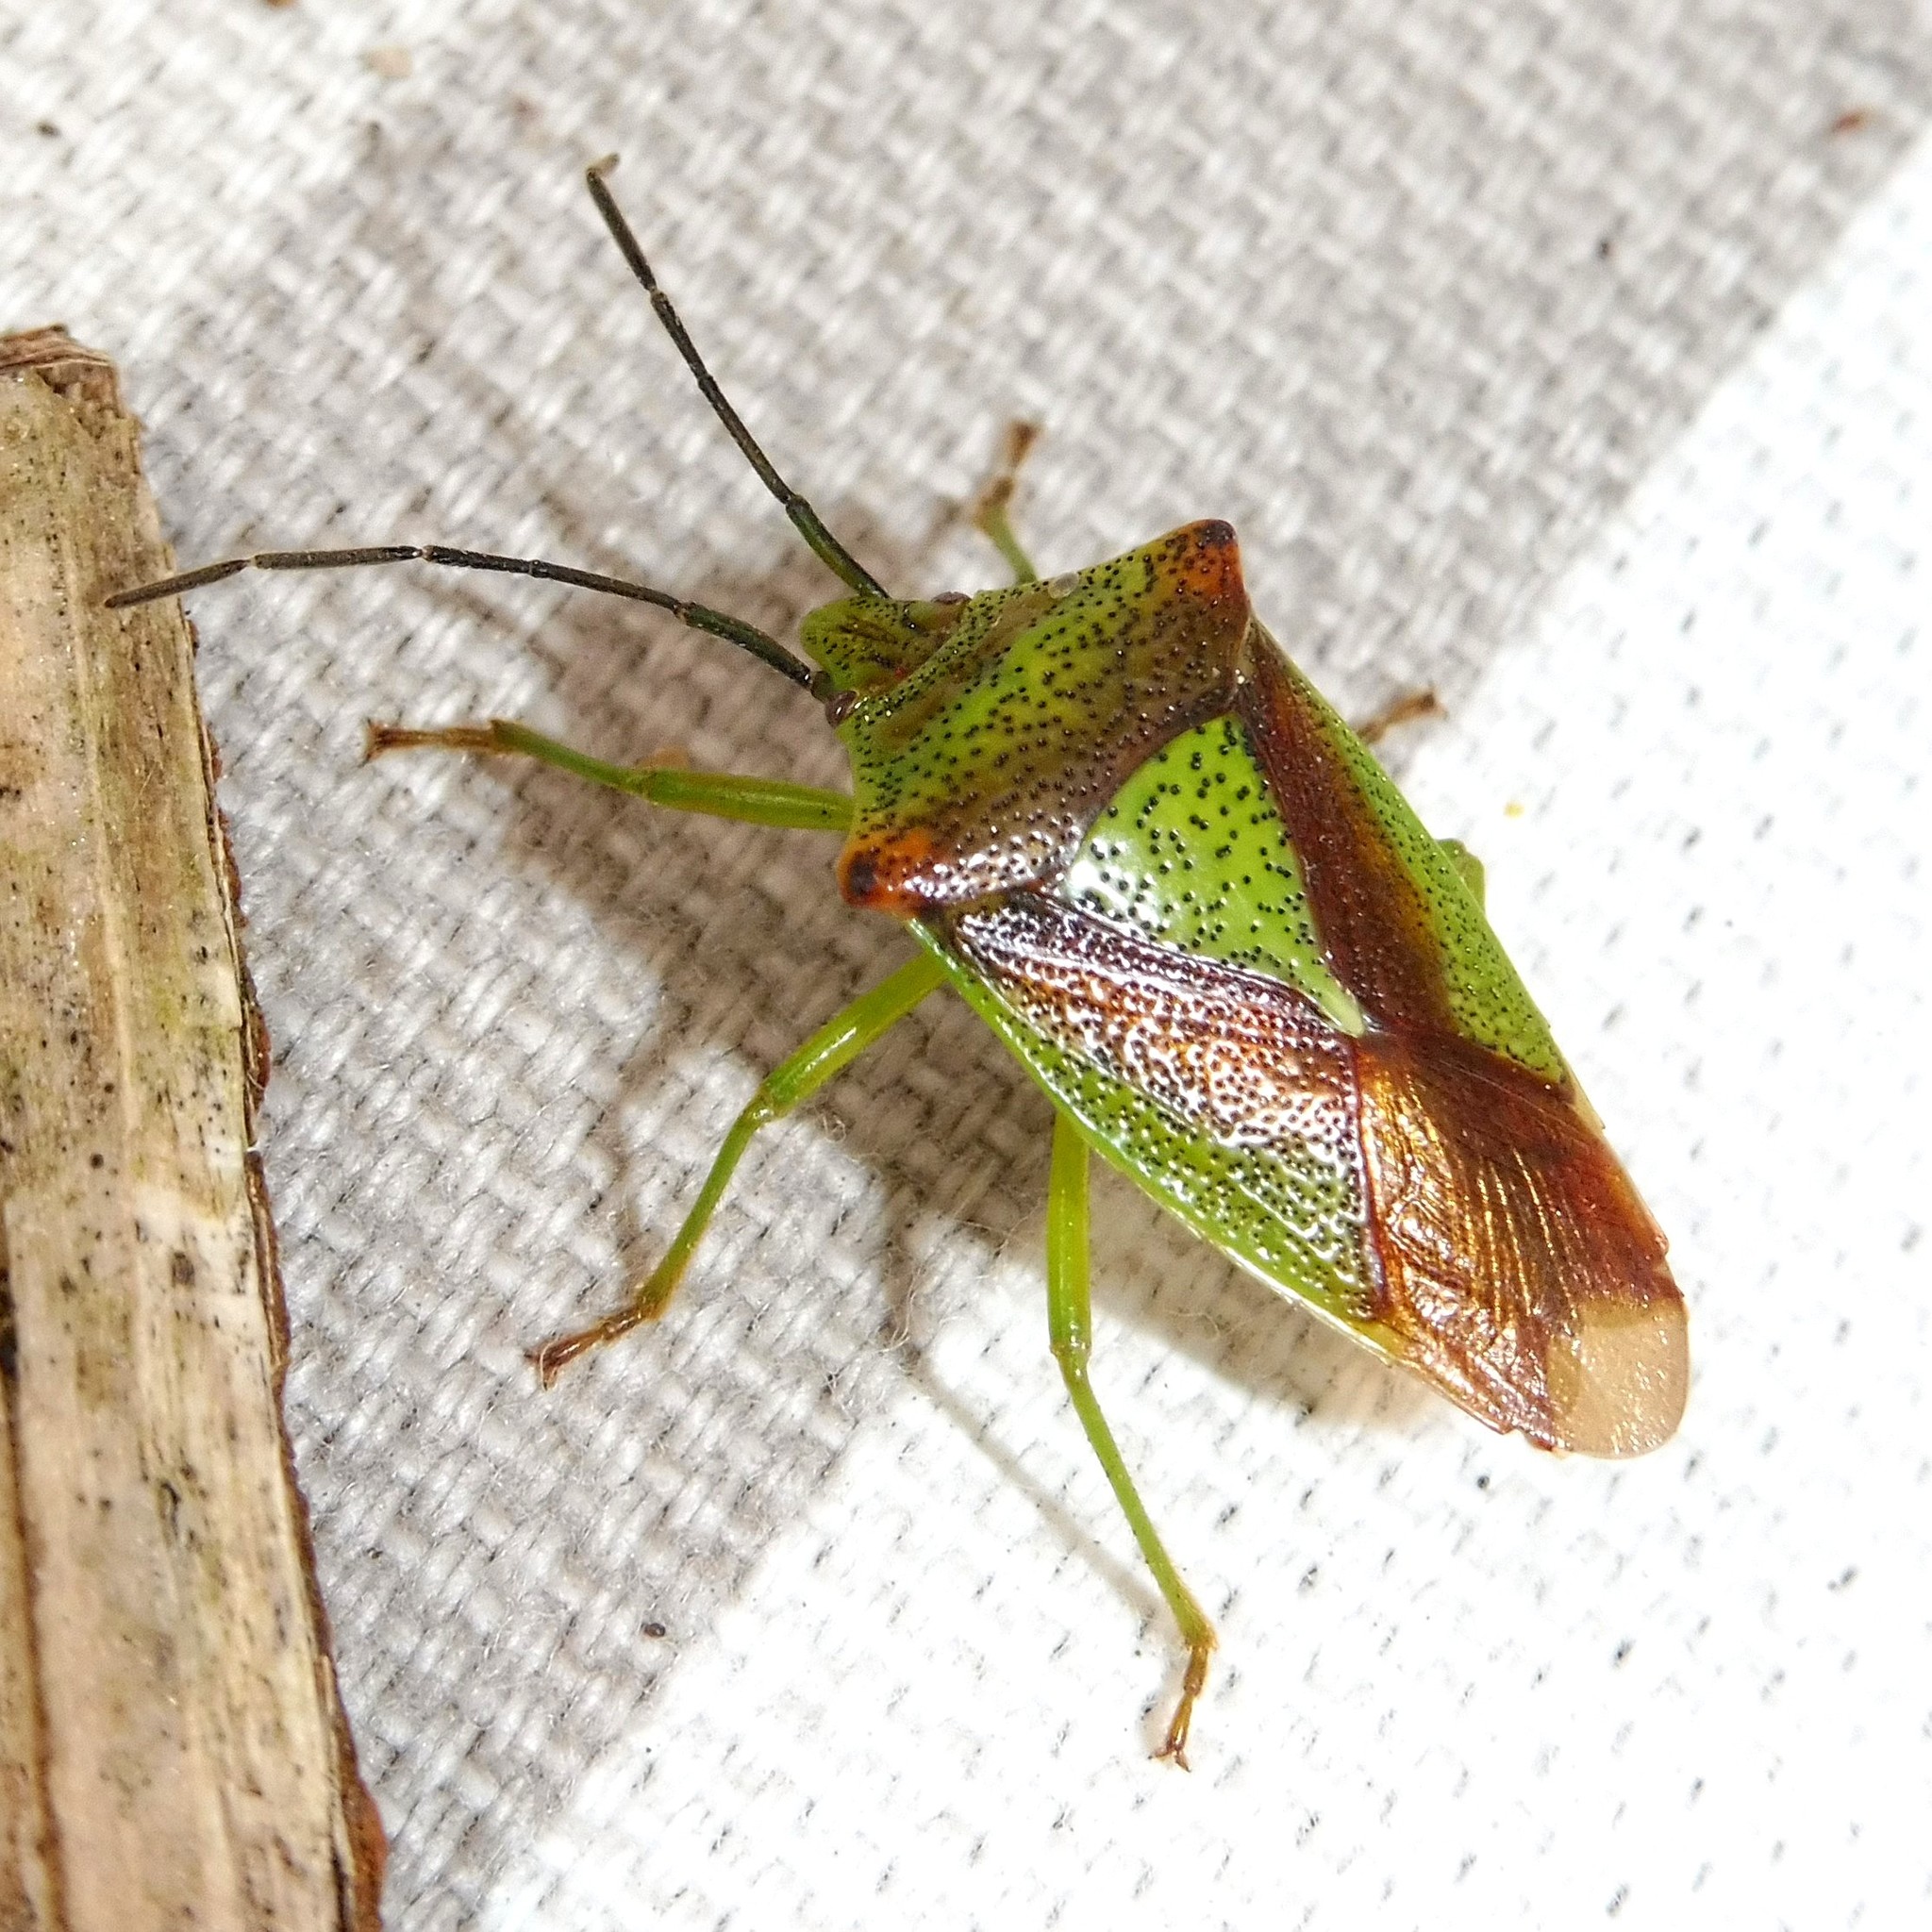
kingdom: Animalia
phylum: Arthropoda
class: Insecta
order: Hemiptera
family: Acanthosomatidae
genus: Acanthosoma
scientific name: Acanthosoma haemorrhoidale
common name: Hawthorn shieldbug
